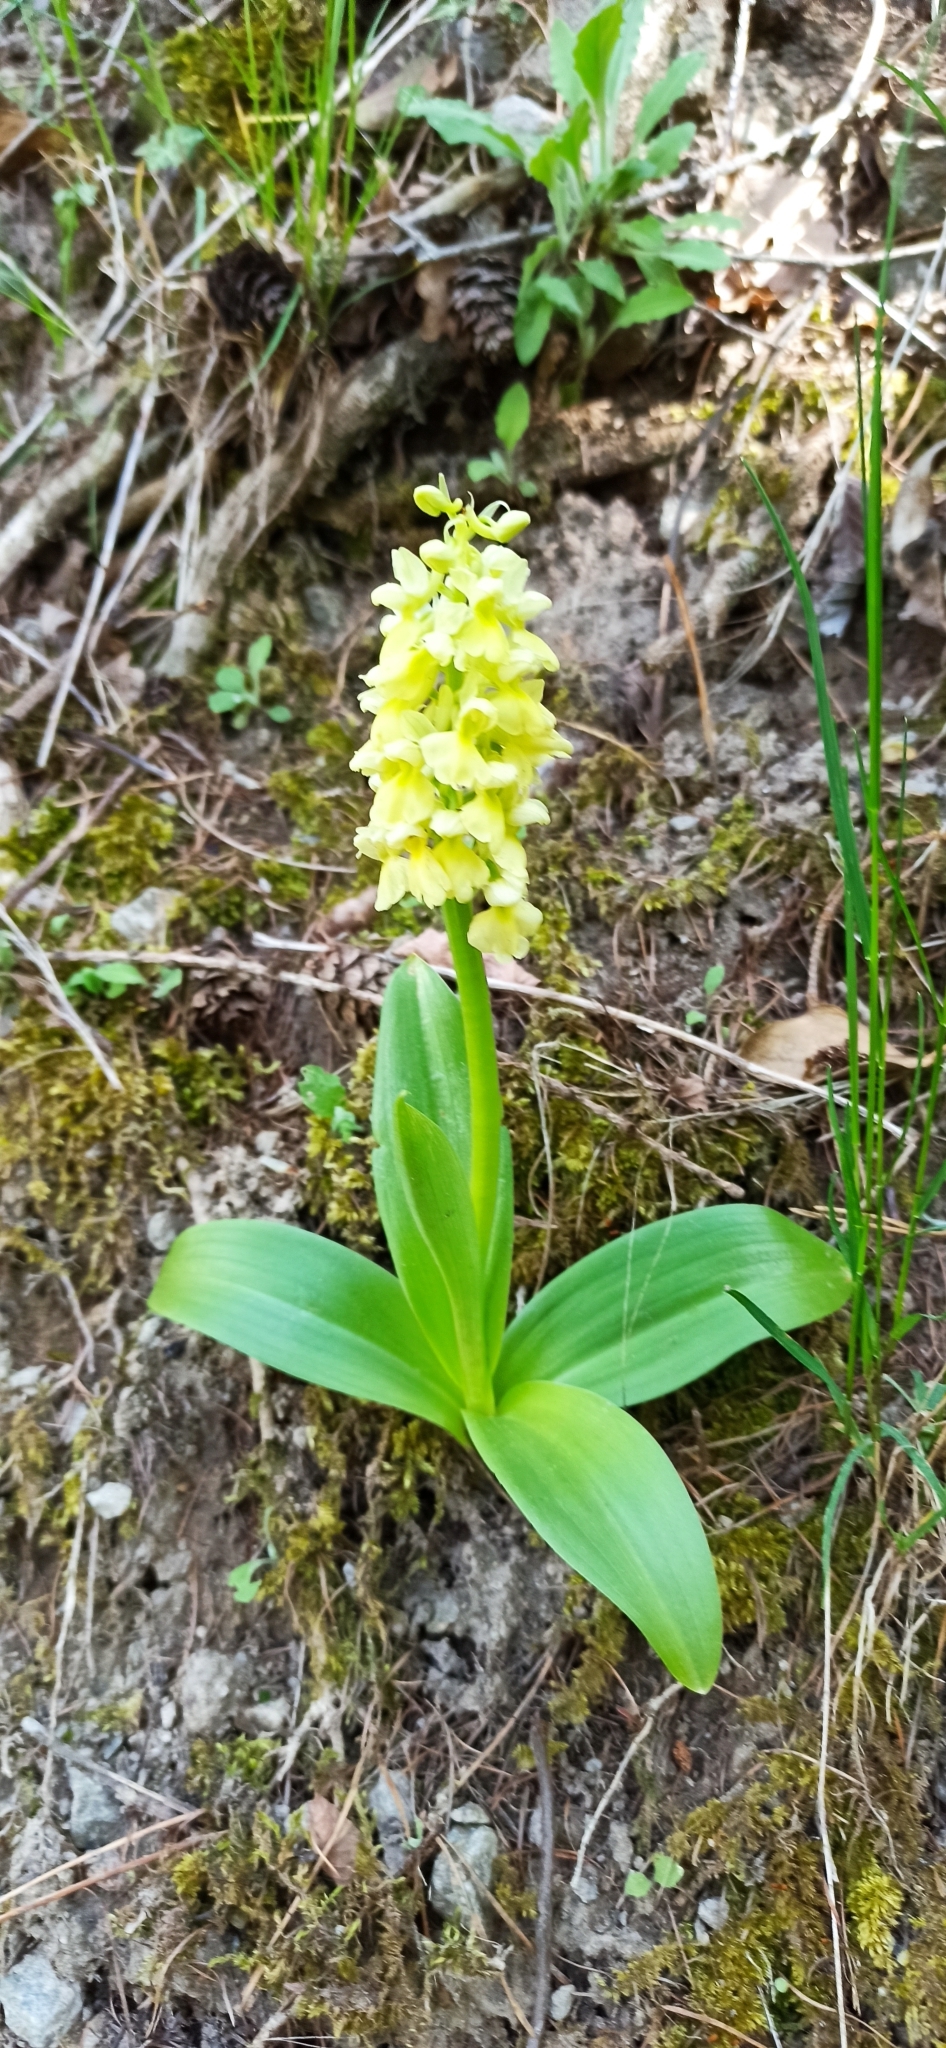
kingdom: Plantae
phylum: Tracheophyta
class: Liliopsida
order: Asparagales
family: Orchidaceae
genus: Orchis
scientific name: Orchis pallens
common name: Pale-flowered orchid
